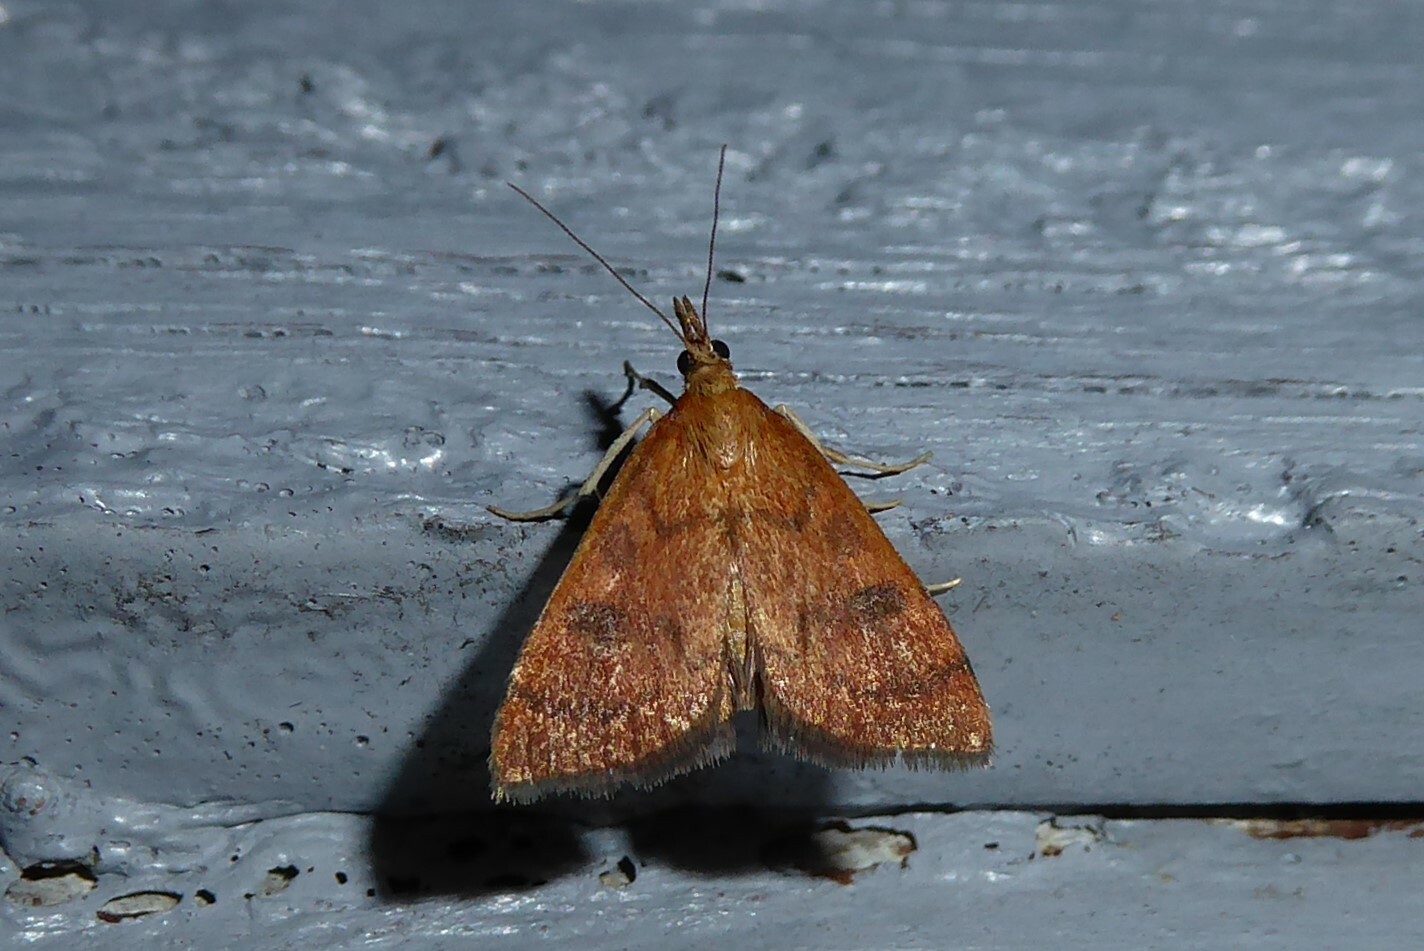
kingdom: Animalia
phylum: Arthropoda
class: Insecta
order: Lepidoptera
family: Crambidae
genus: Udea
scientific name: Udea Mnesictena flavidalis
